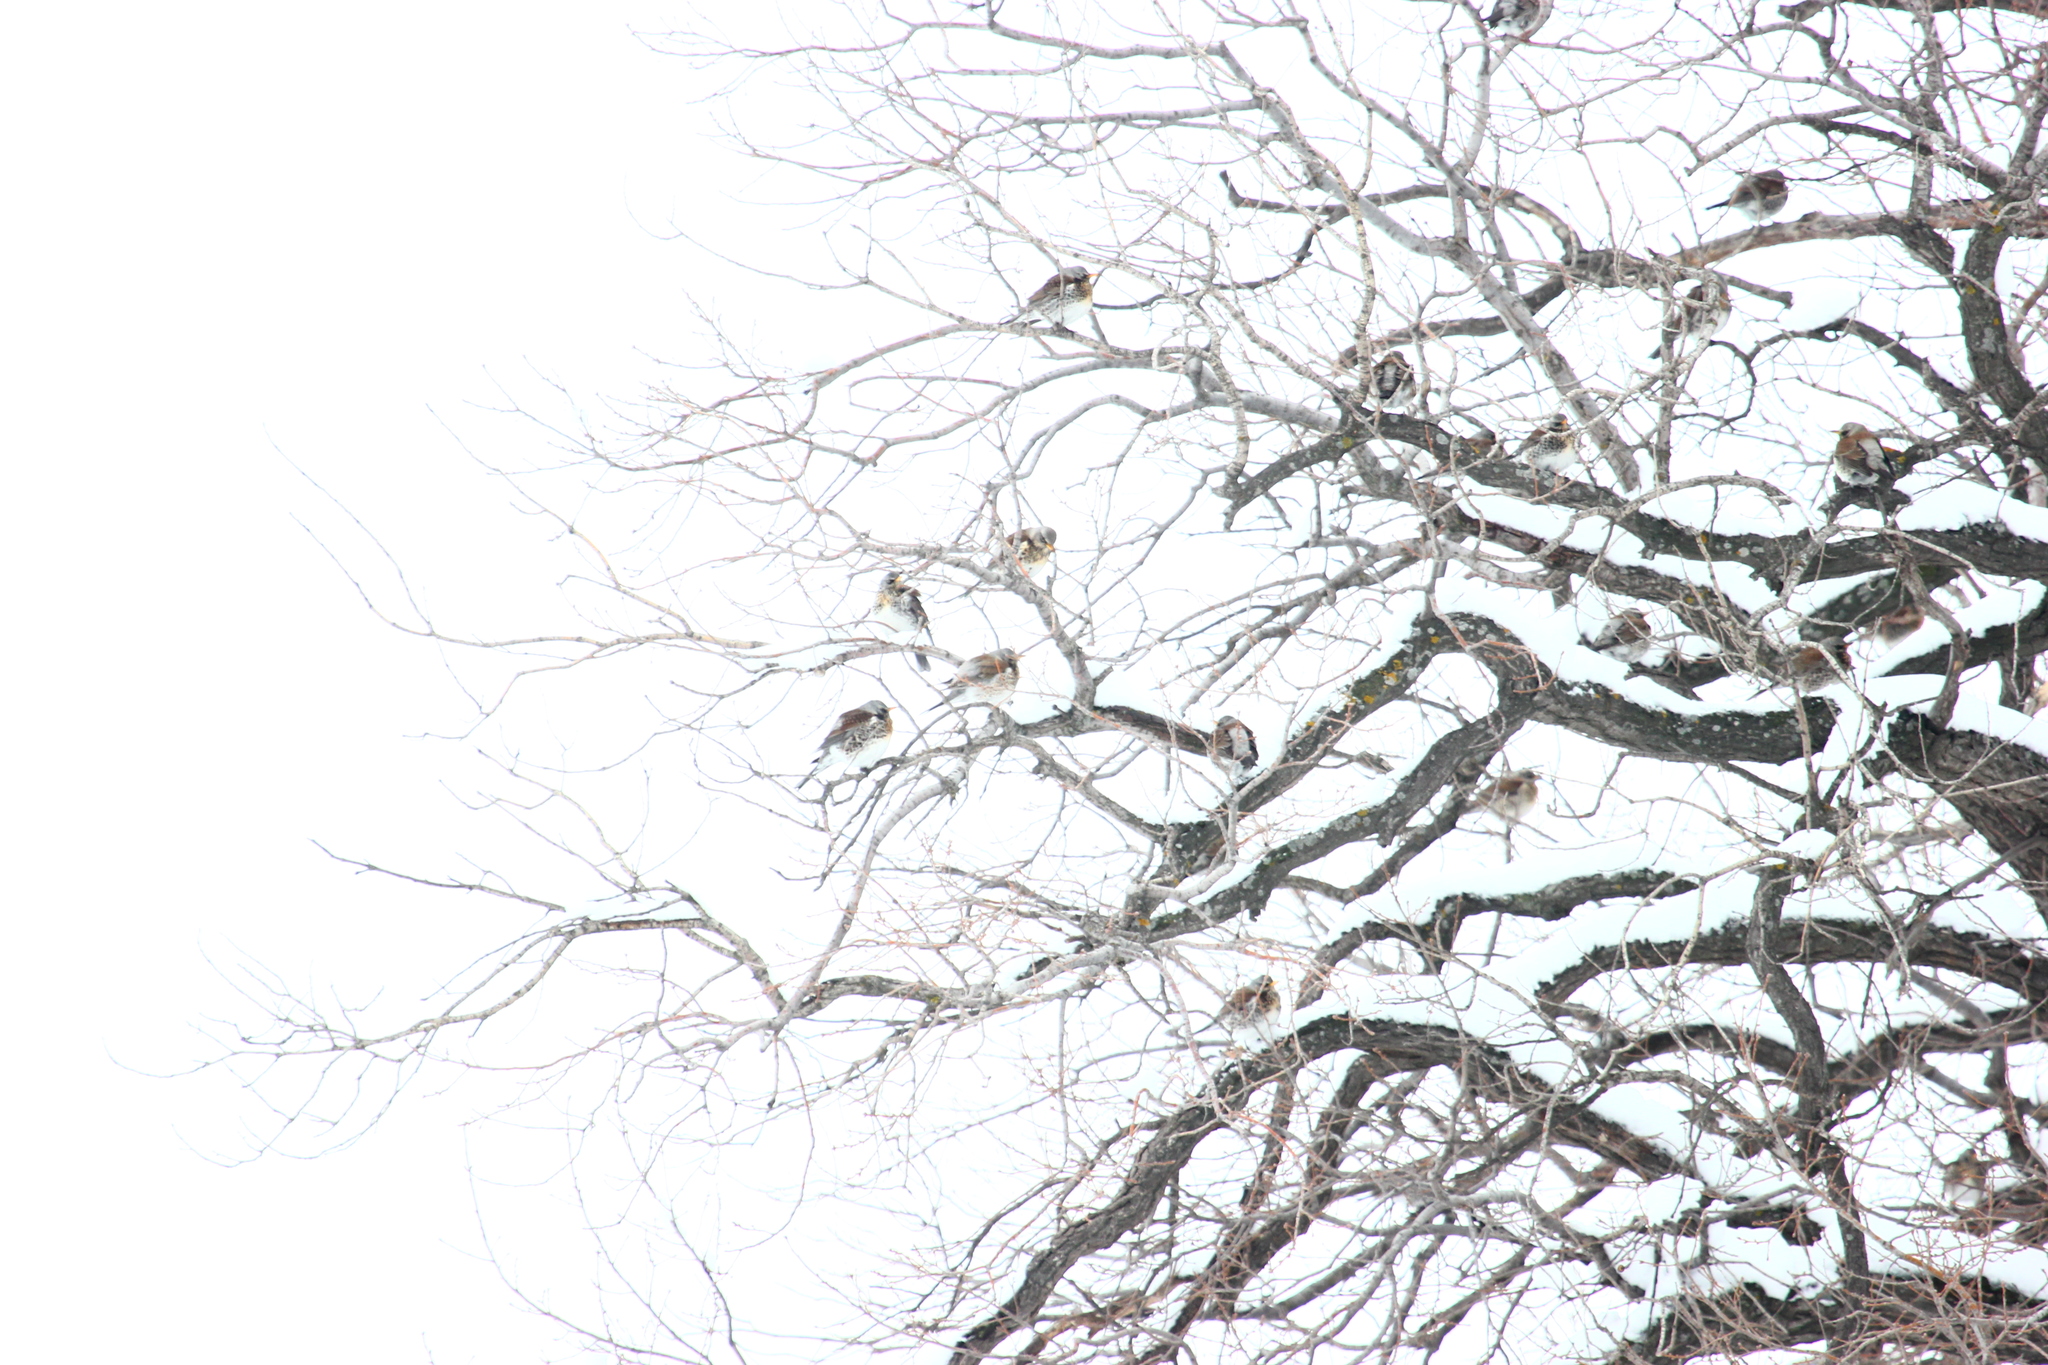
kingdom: Animalia
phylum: Chordata
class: Aves
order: Passeriformes
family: Turdidae
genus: Turdus
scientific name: Turdus pilaris
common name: Fieldfare
